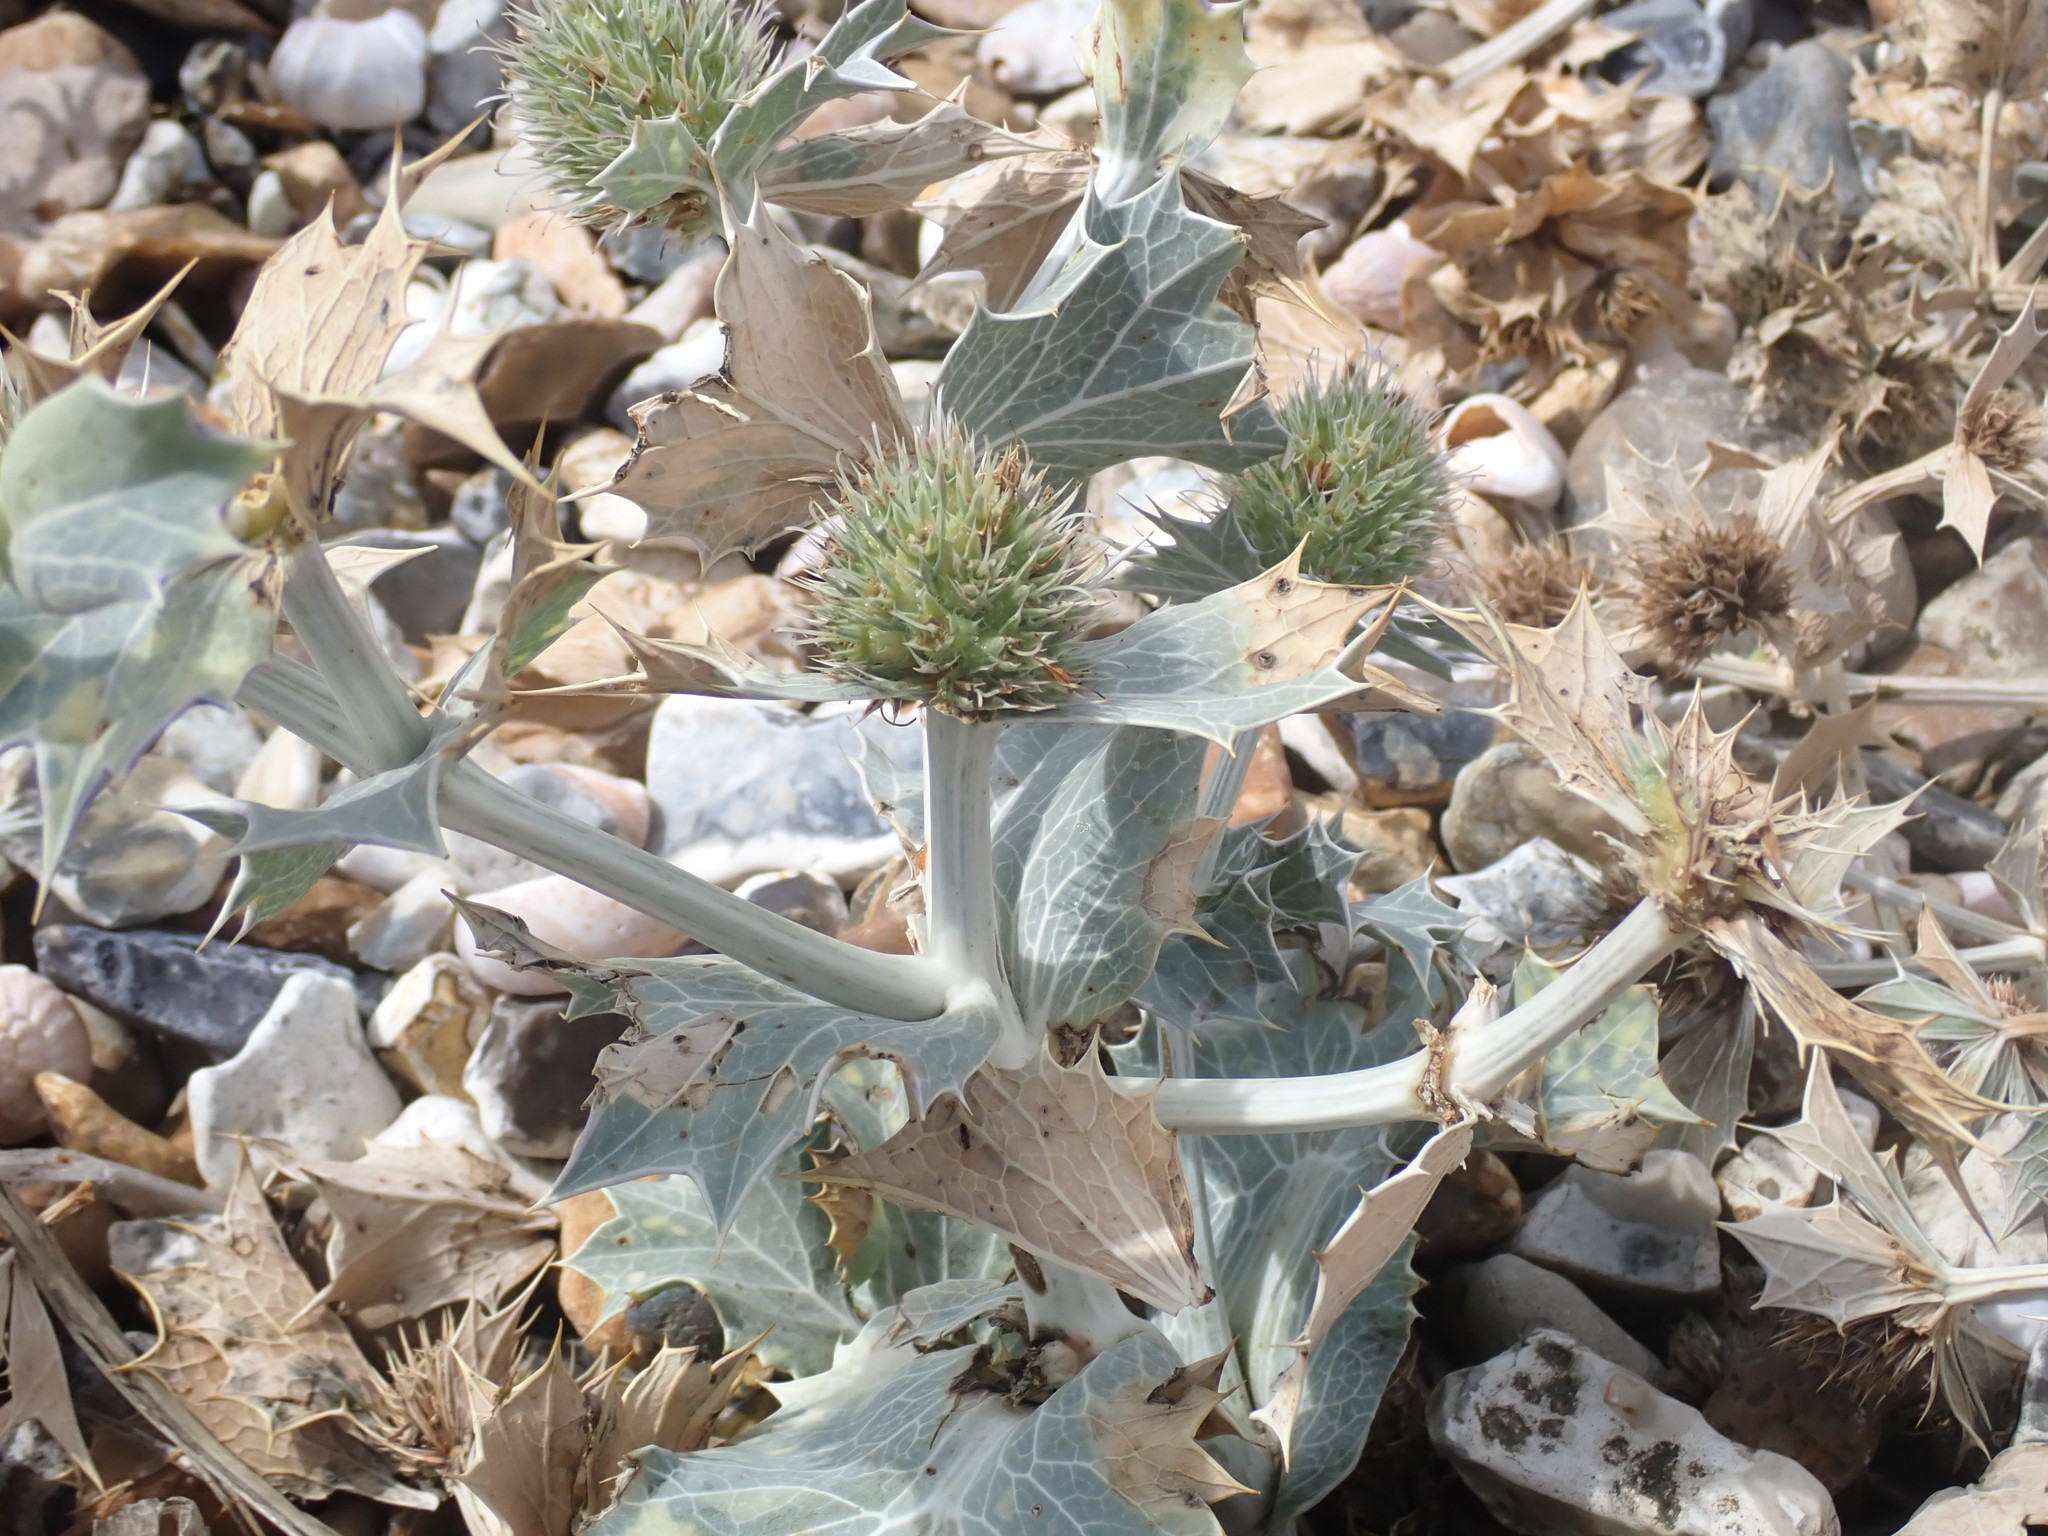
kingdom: Plantae
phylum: Tracheophyta
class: Magnoliopsida
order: Apiales
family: Apiaceae
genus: Eryngium
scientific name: Eryngium maritimum
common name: Sea-holly
